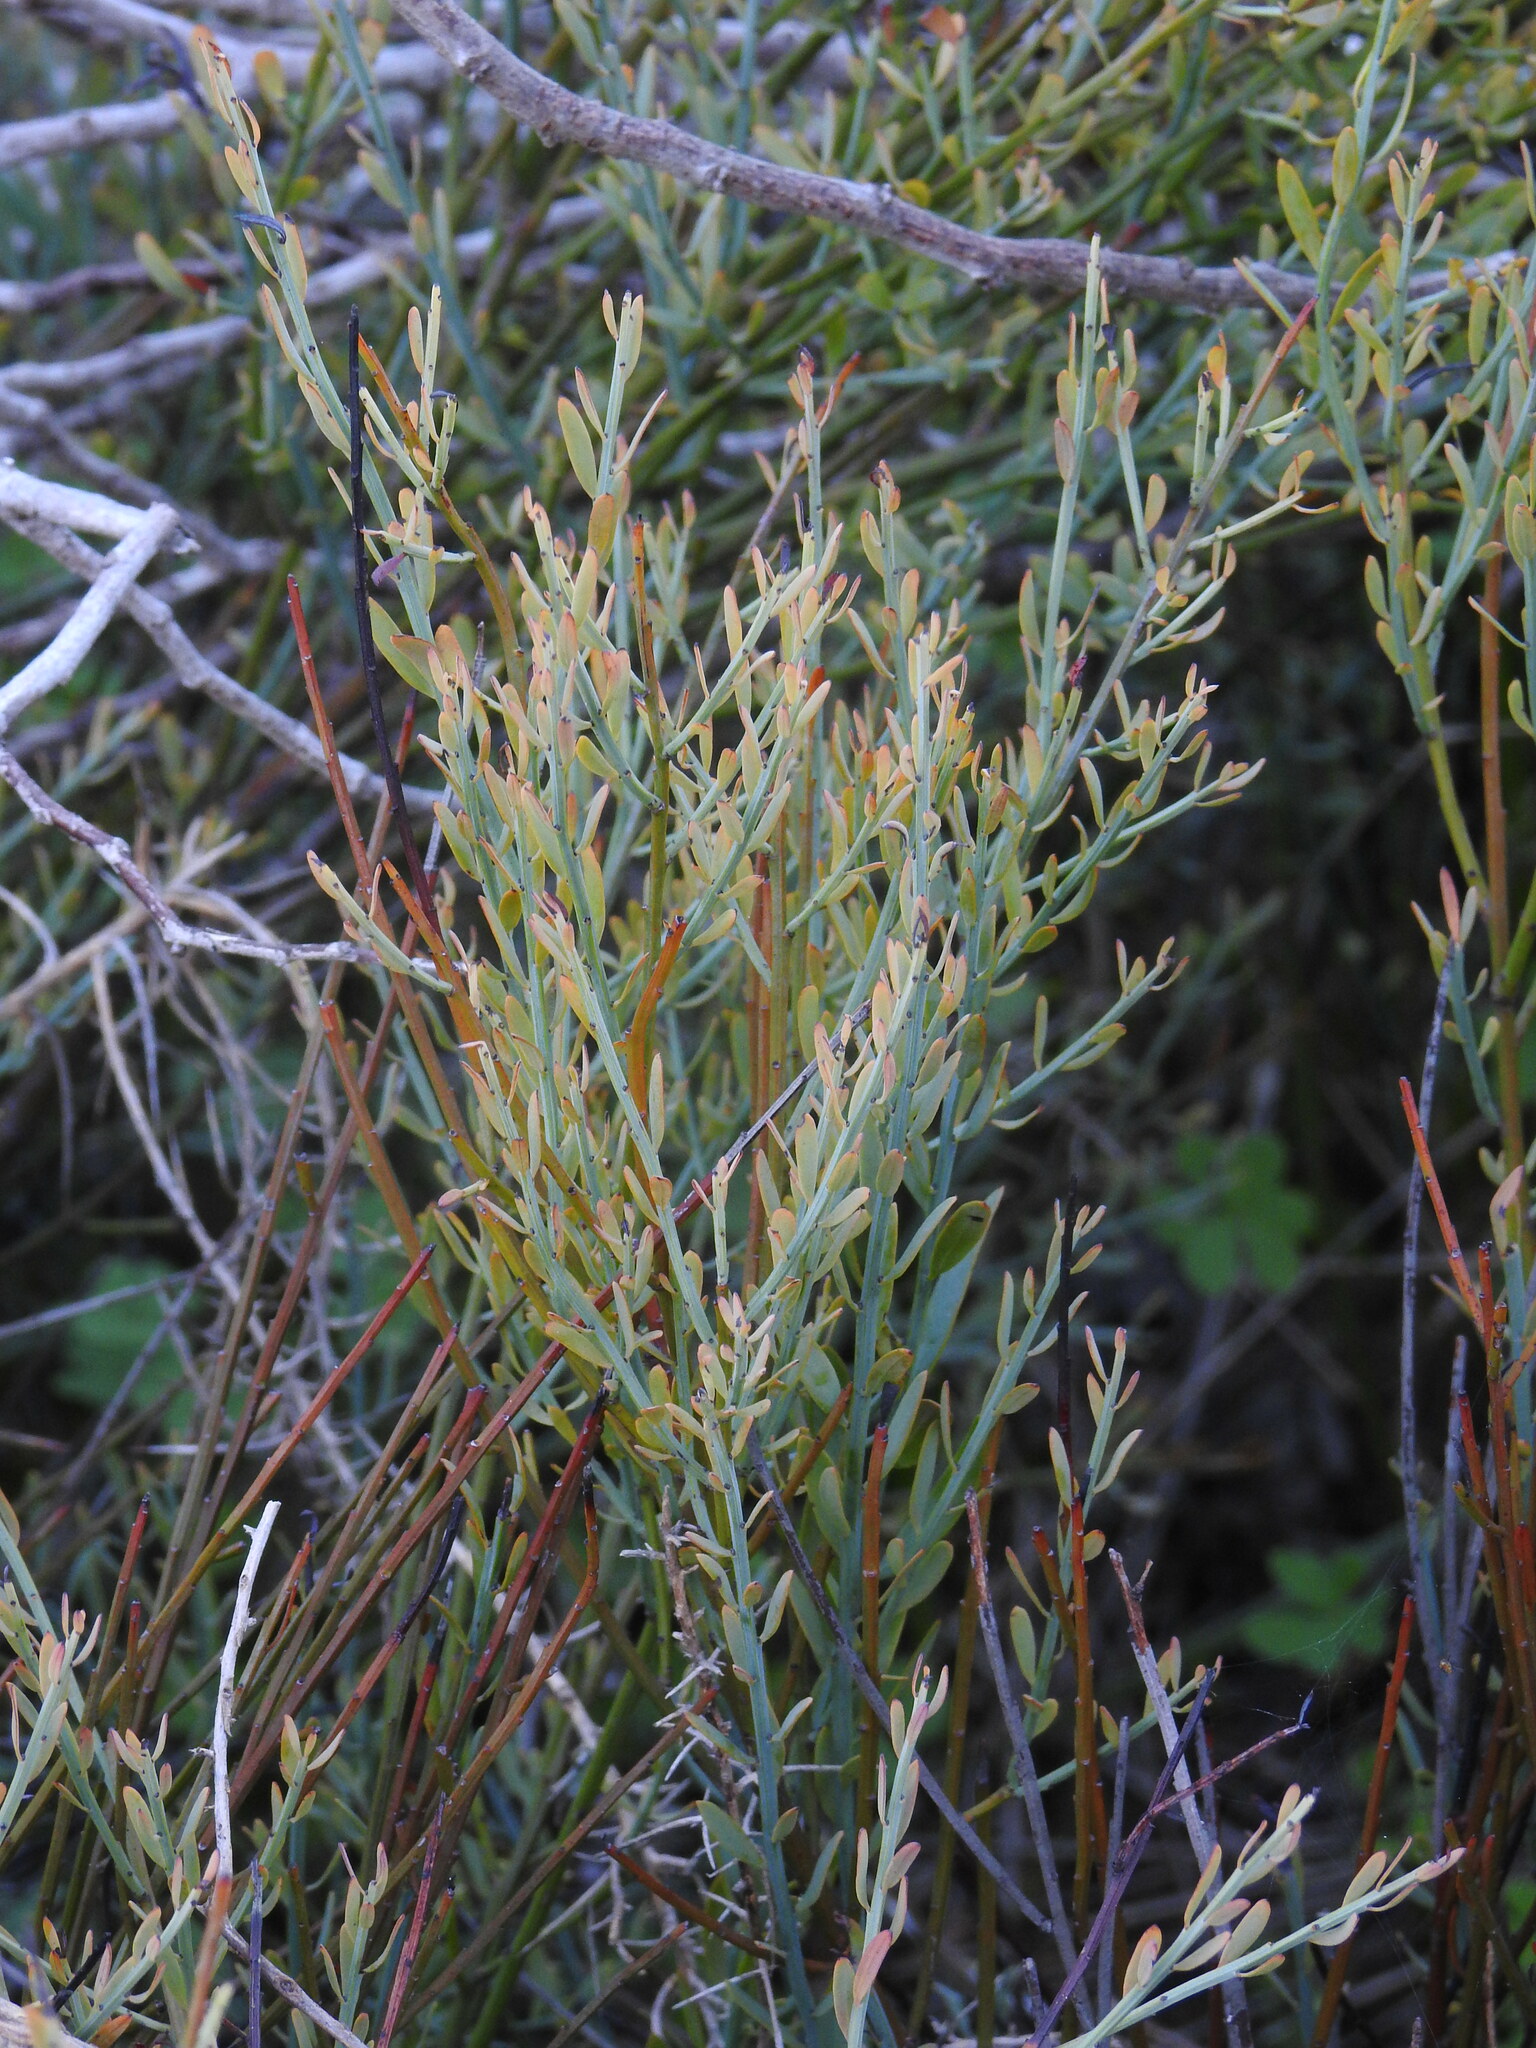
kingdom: Plantae
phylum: Tracheophyta
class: Magnoliopsida
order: Santalales
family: Santalaceae
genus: Osyris
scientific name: Osyris alba
